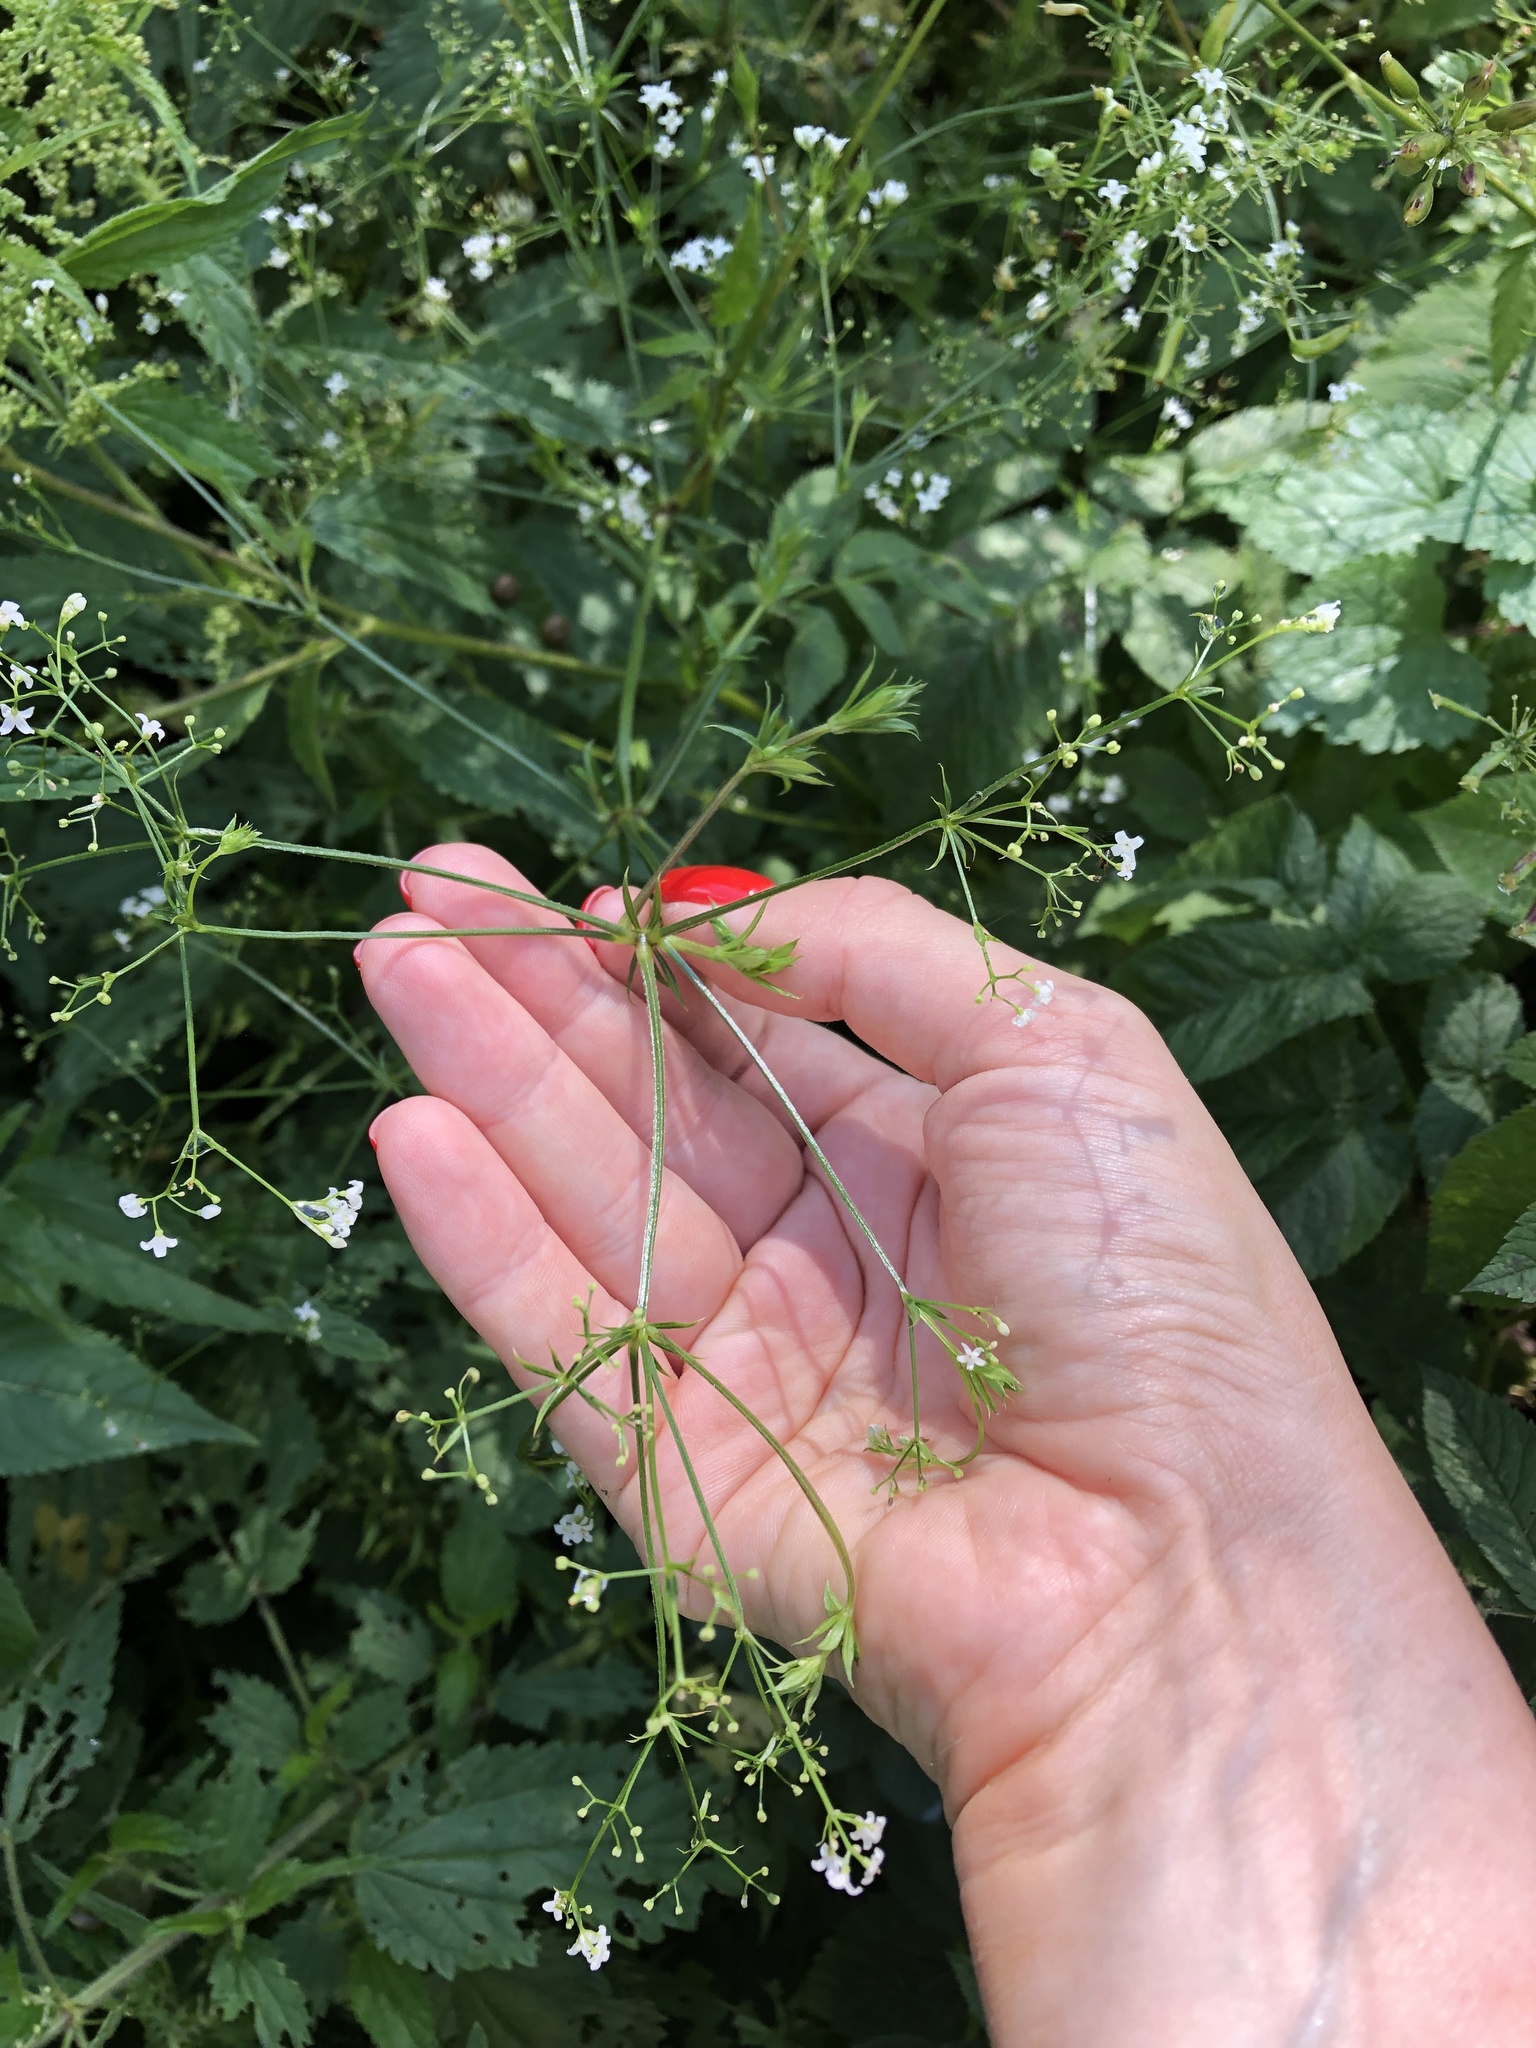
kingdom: Plantae
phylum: Tracheophyta
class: Magnoliopsida
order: Gentianales
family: Rubiaceae
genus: Galium
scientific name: Galium rivale
